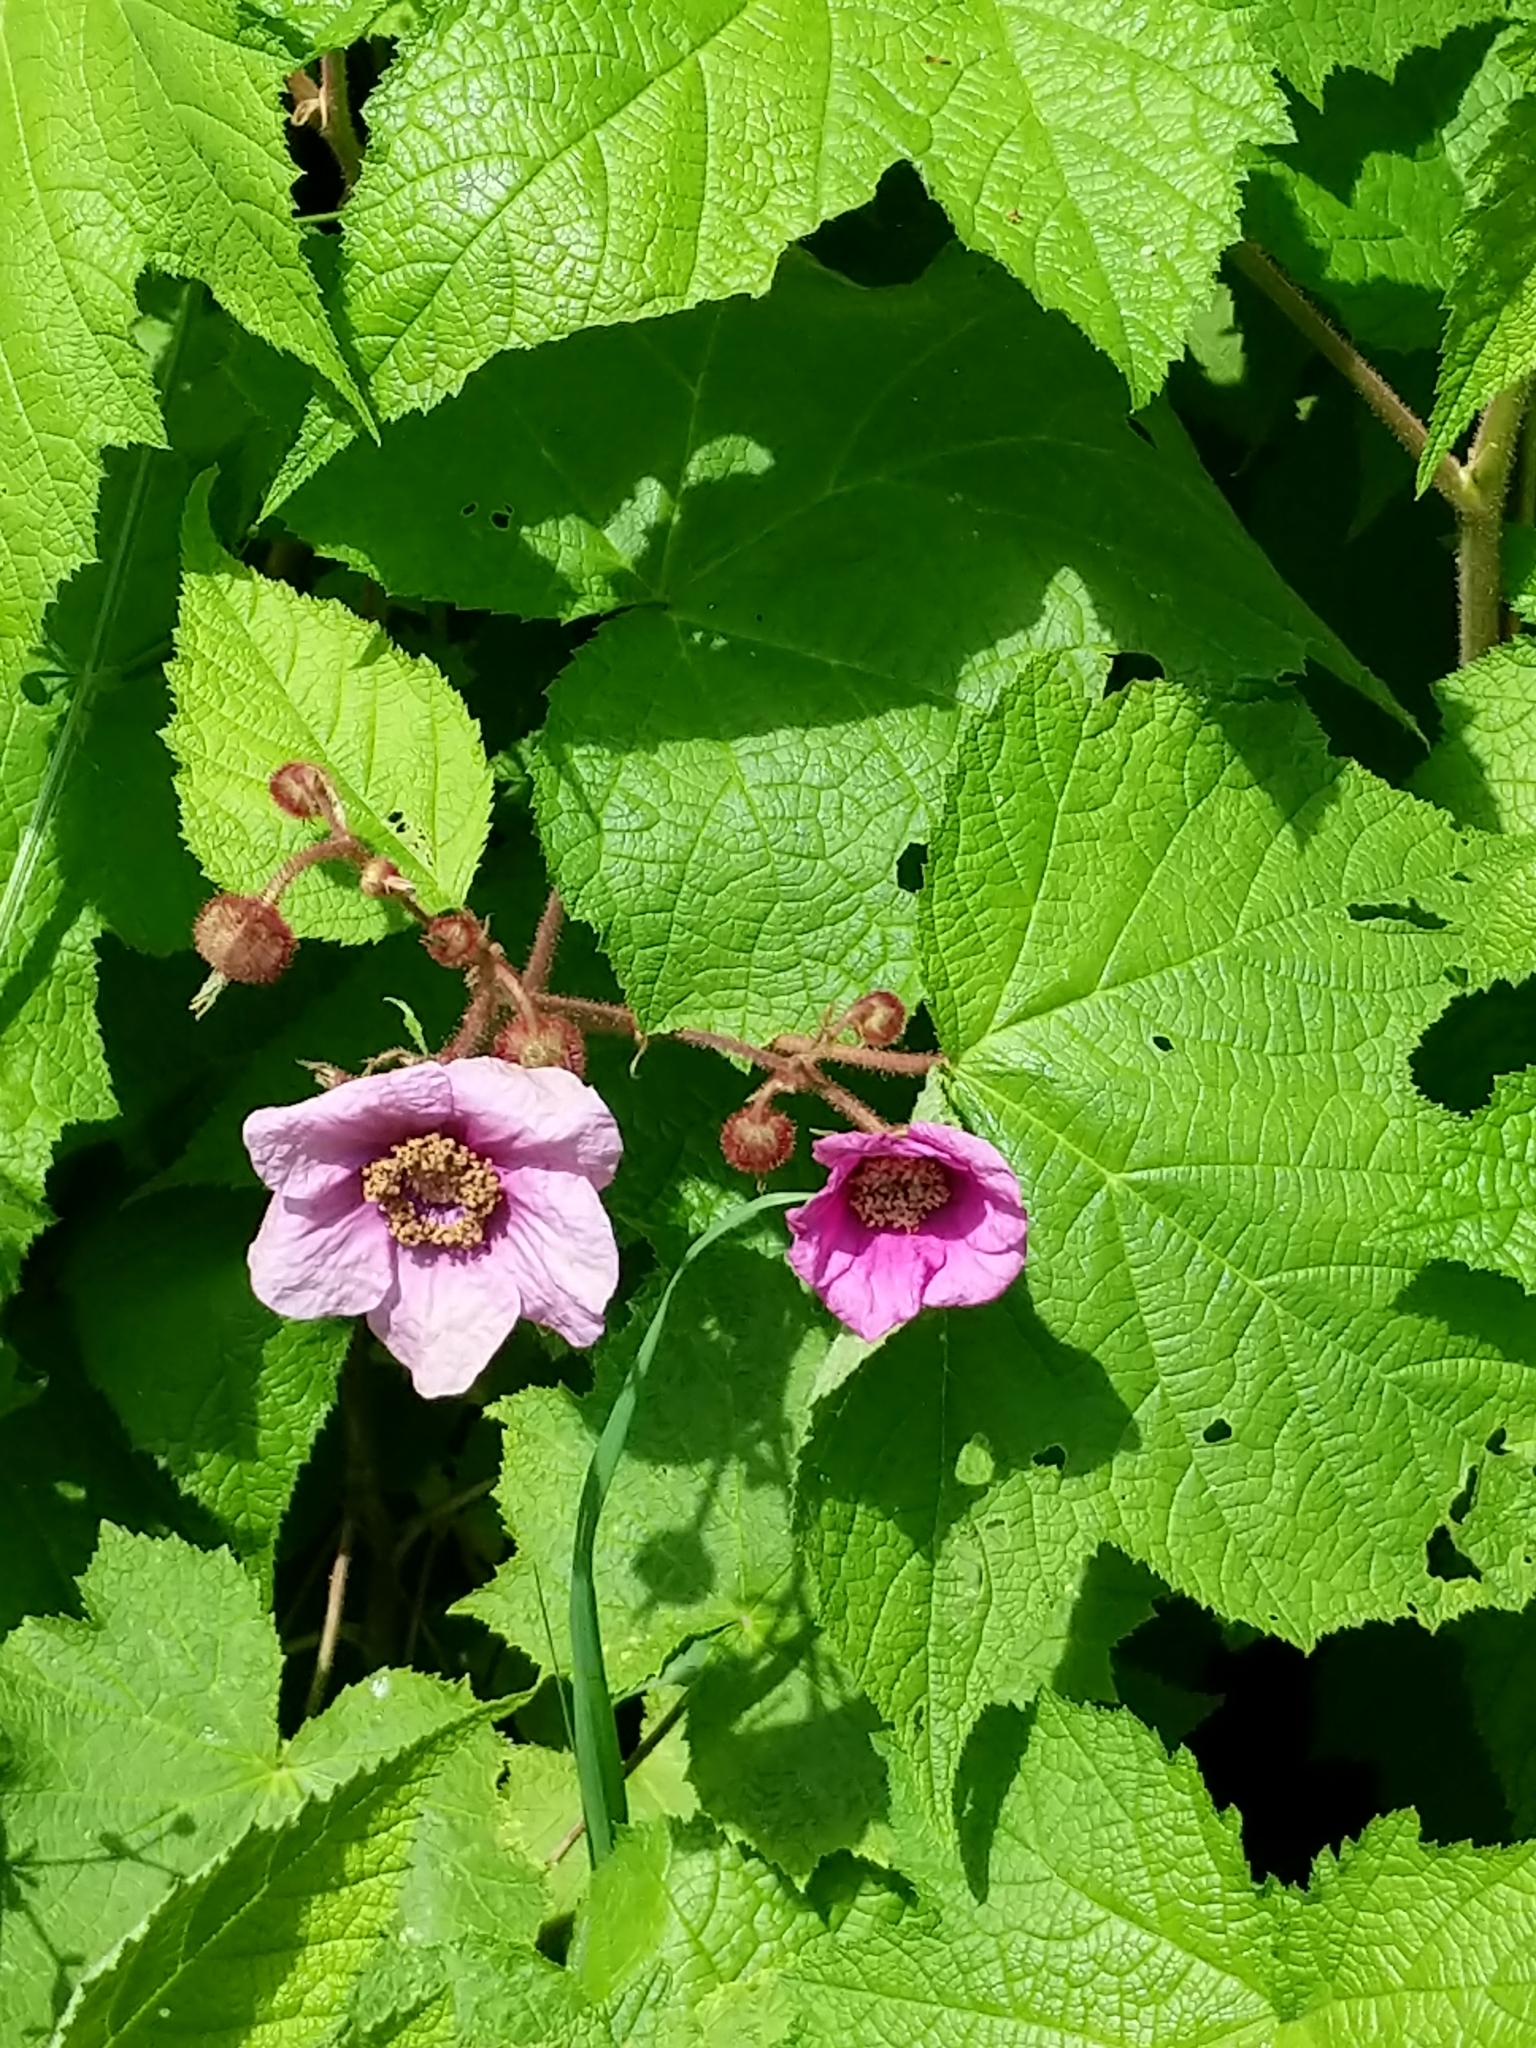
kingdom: Plantae
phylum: Tracheophyta
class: Magnoliopsida
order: Rosales
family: Rosaceae
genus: Rubus
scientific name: Rubus odoratus
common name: Purple-flowered raspberry
